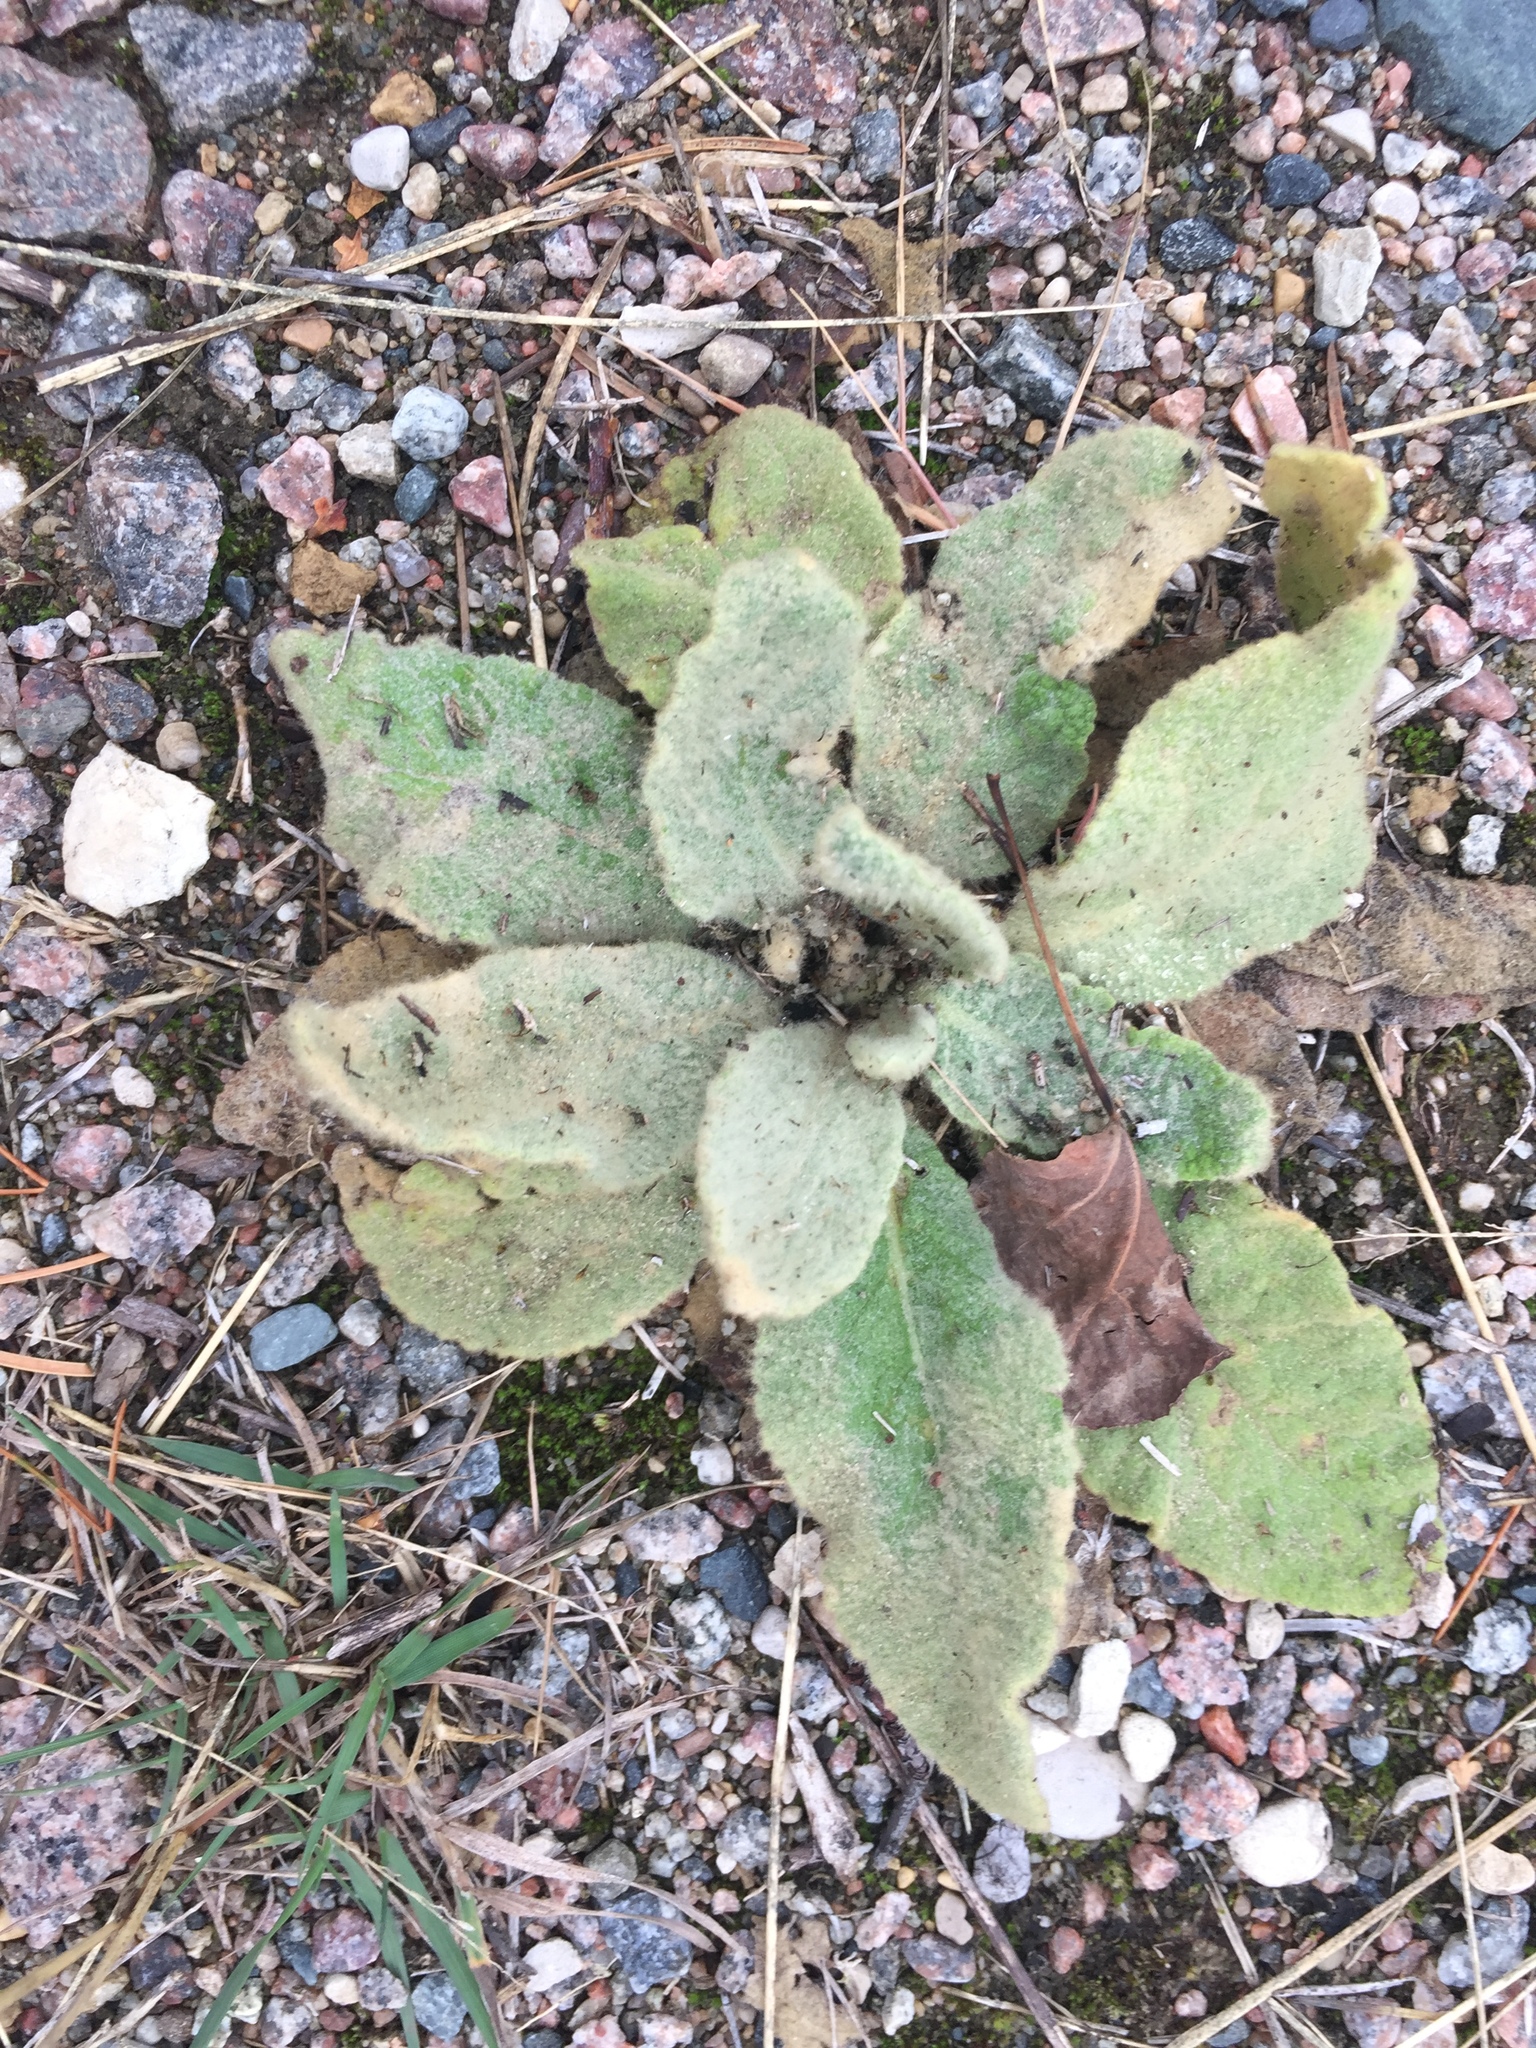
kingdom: Plantae
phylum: Tracheophyta
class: Magnoliopsida
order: Lamiales
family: Scrophulariaceae
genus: Verbascum
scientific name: Verbascum thapsus
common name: Common mullein
